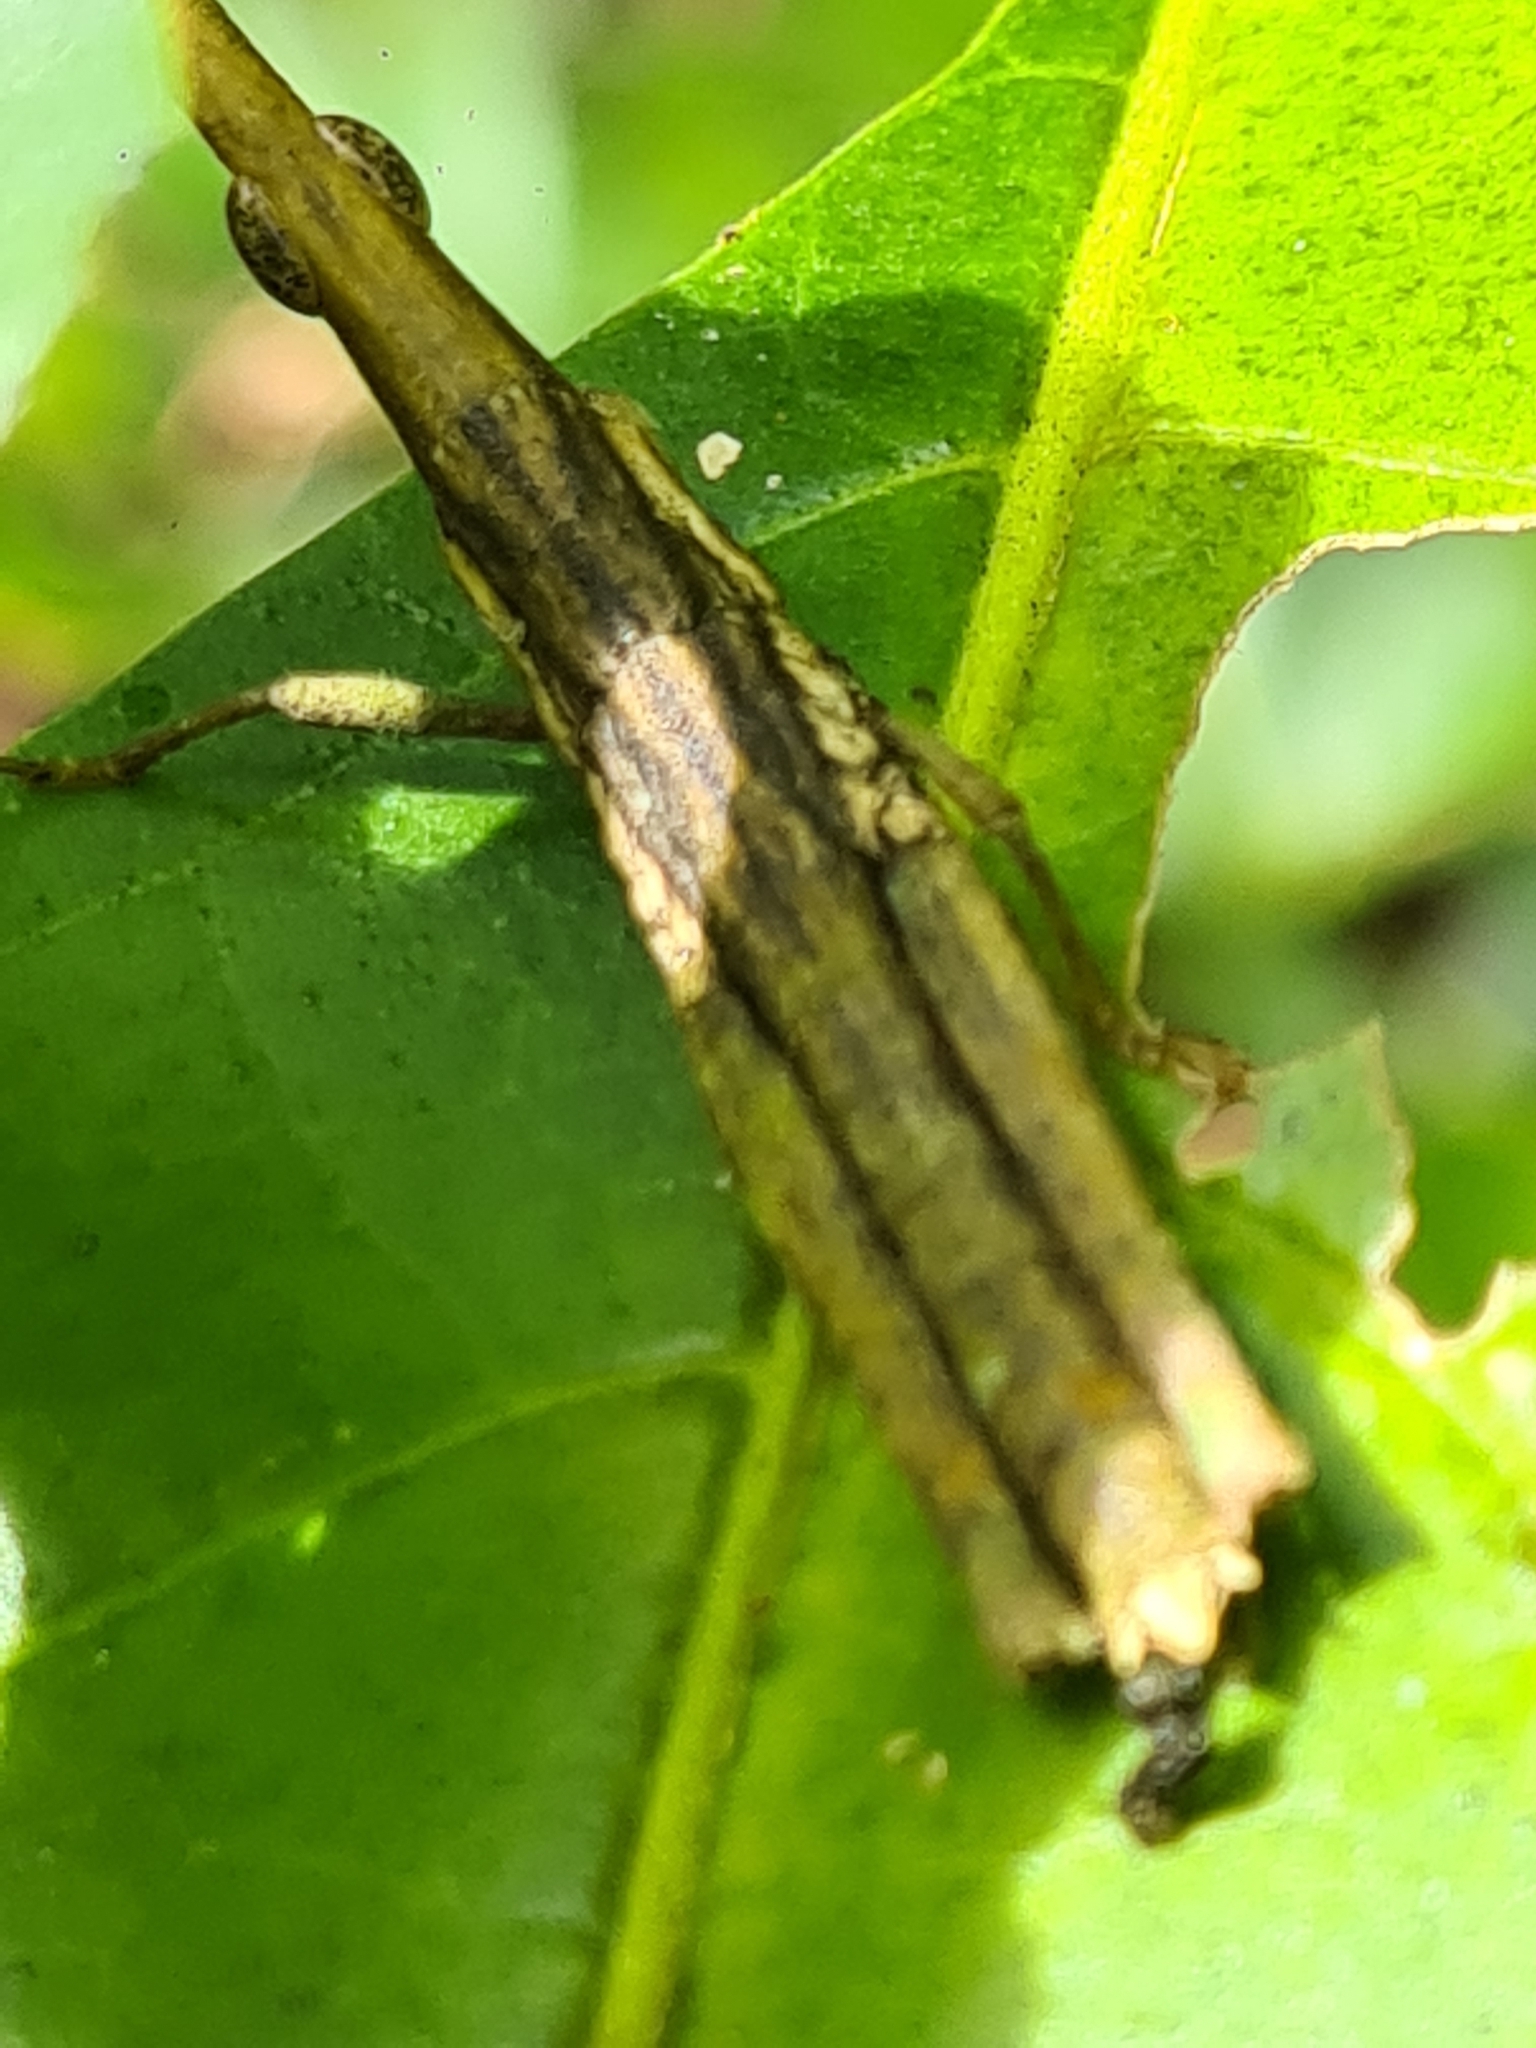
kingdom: Animalia
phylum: Arthropoda
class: Insecta
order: Orthoptera
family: Pyrgomorphidae
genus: Omura
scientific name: Omura congrua
